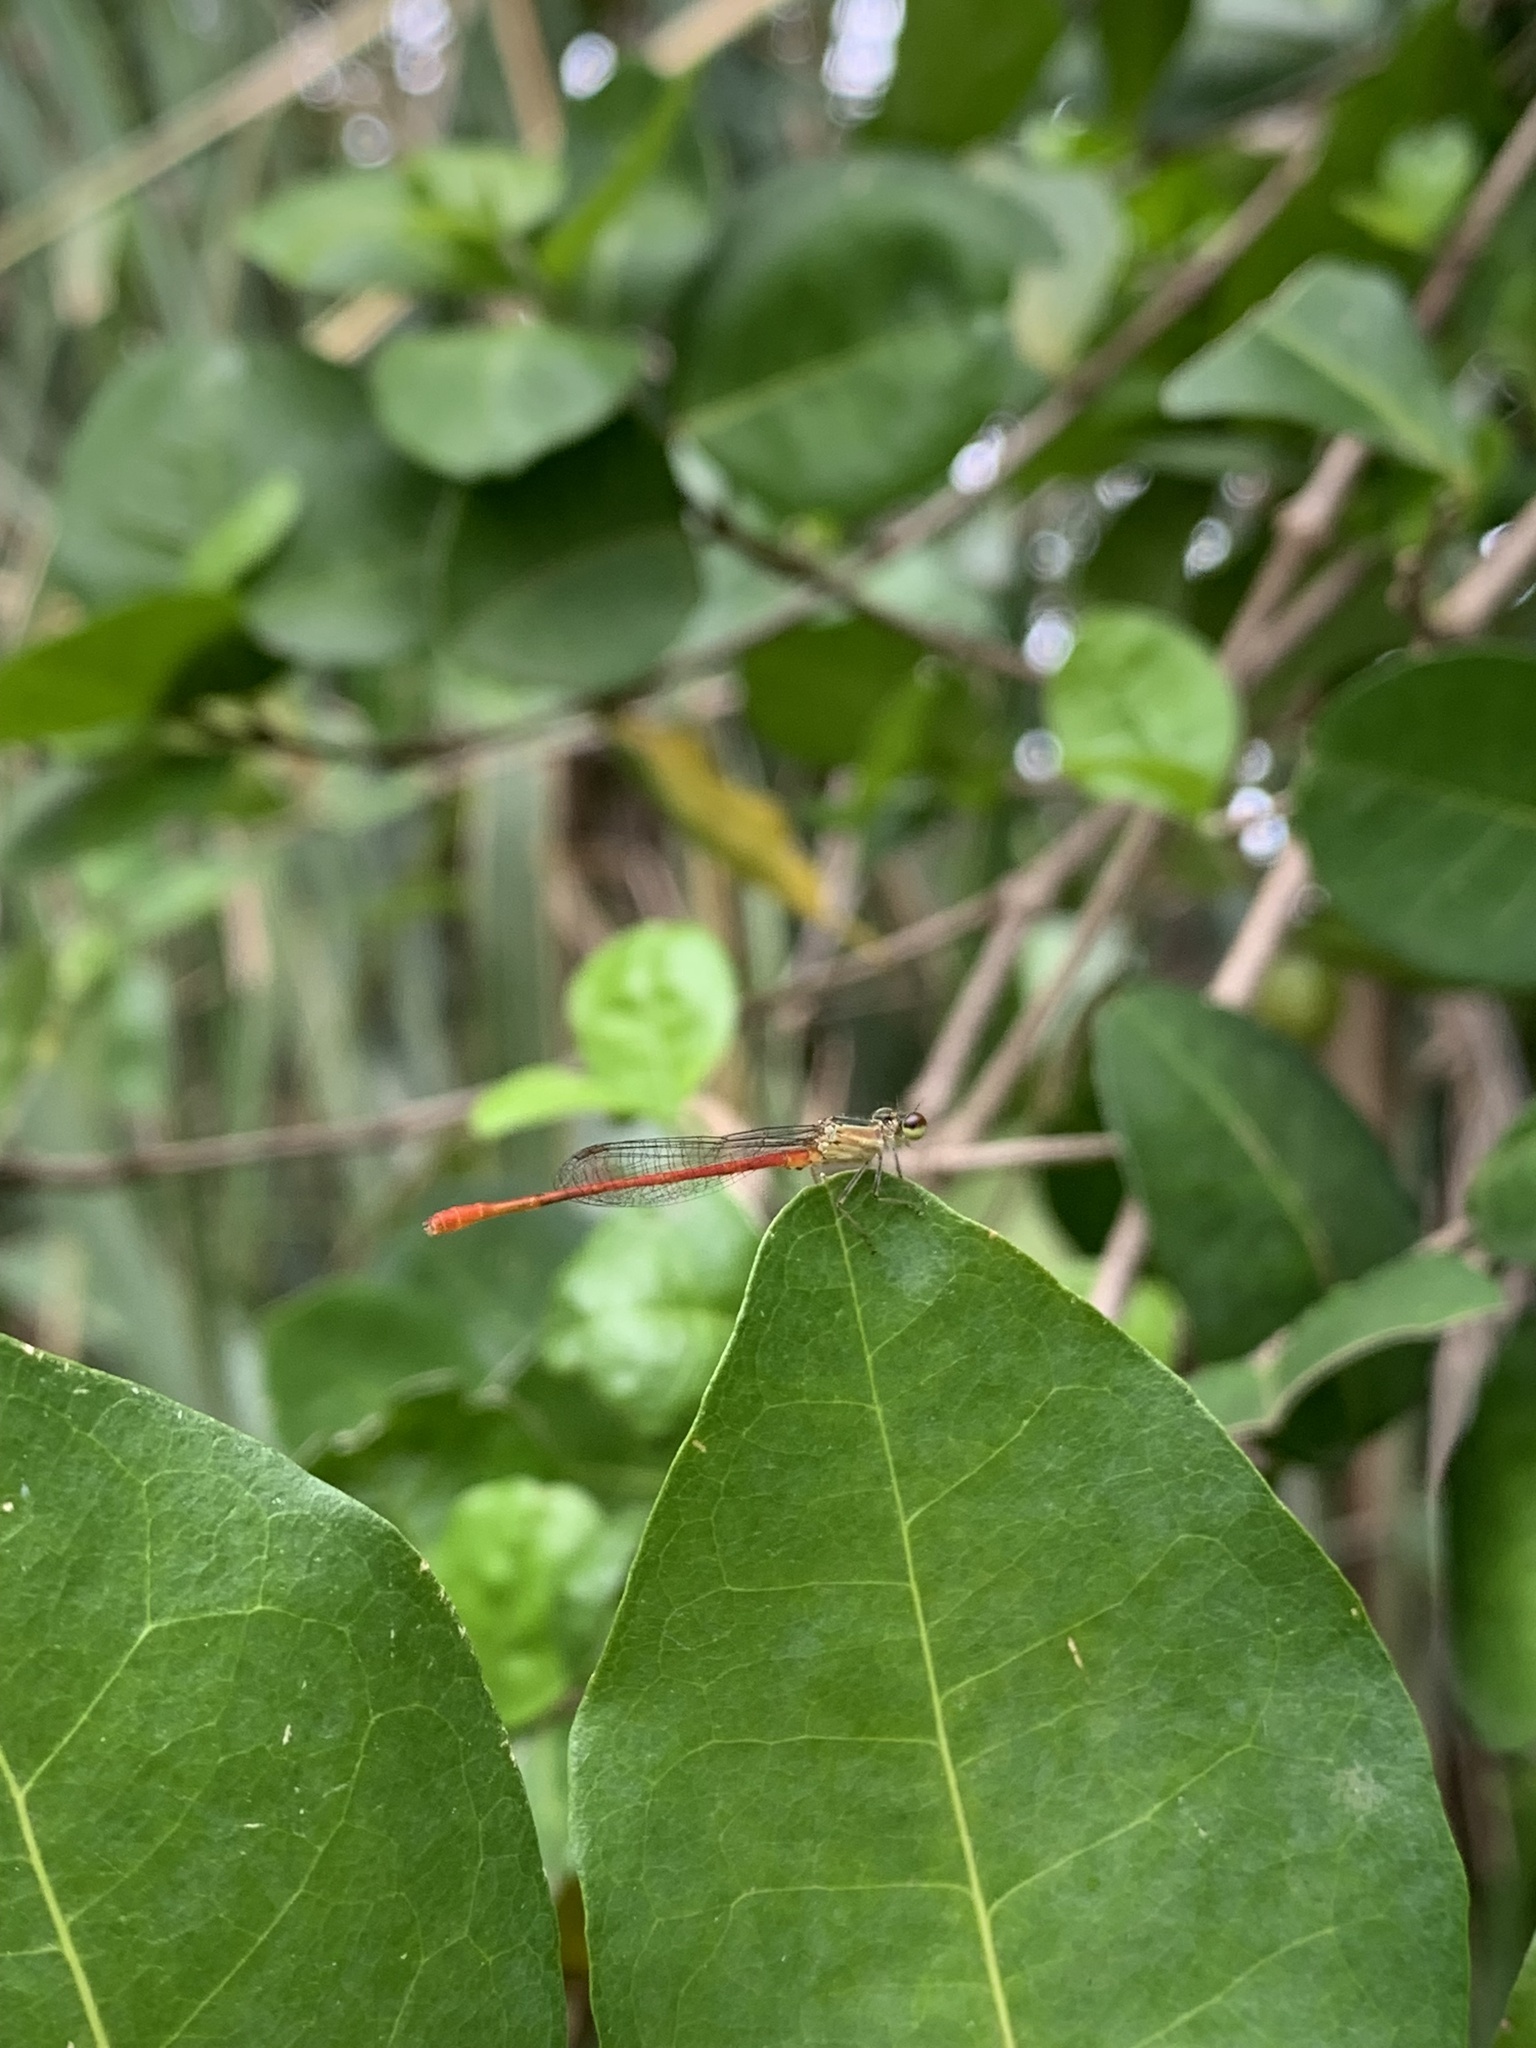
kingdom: Animalia
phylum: Arthropoda
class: Insecta
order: Odonata
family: Coenagrionidae
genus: Telebasis
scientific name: Telebasis filiola
